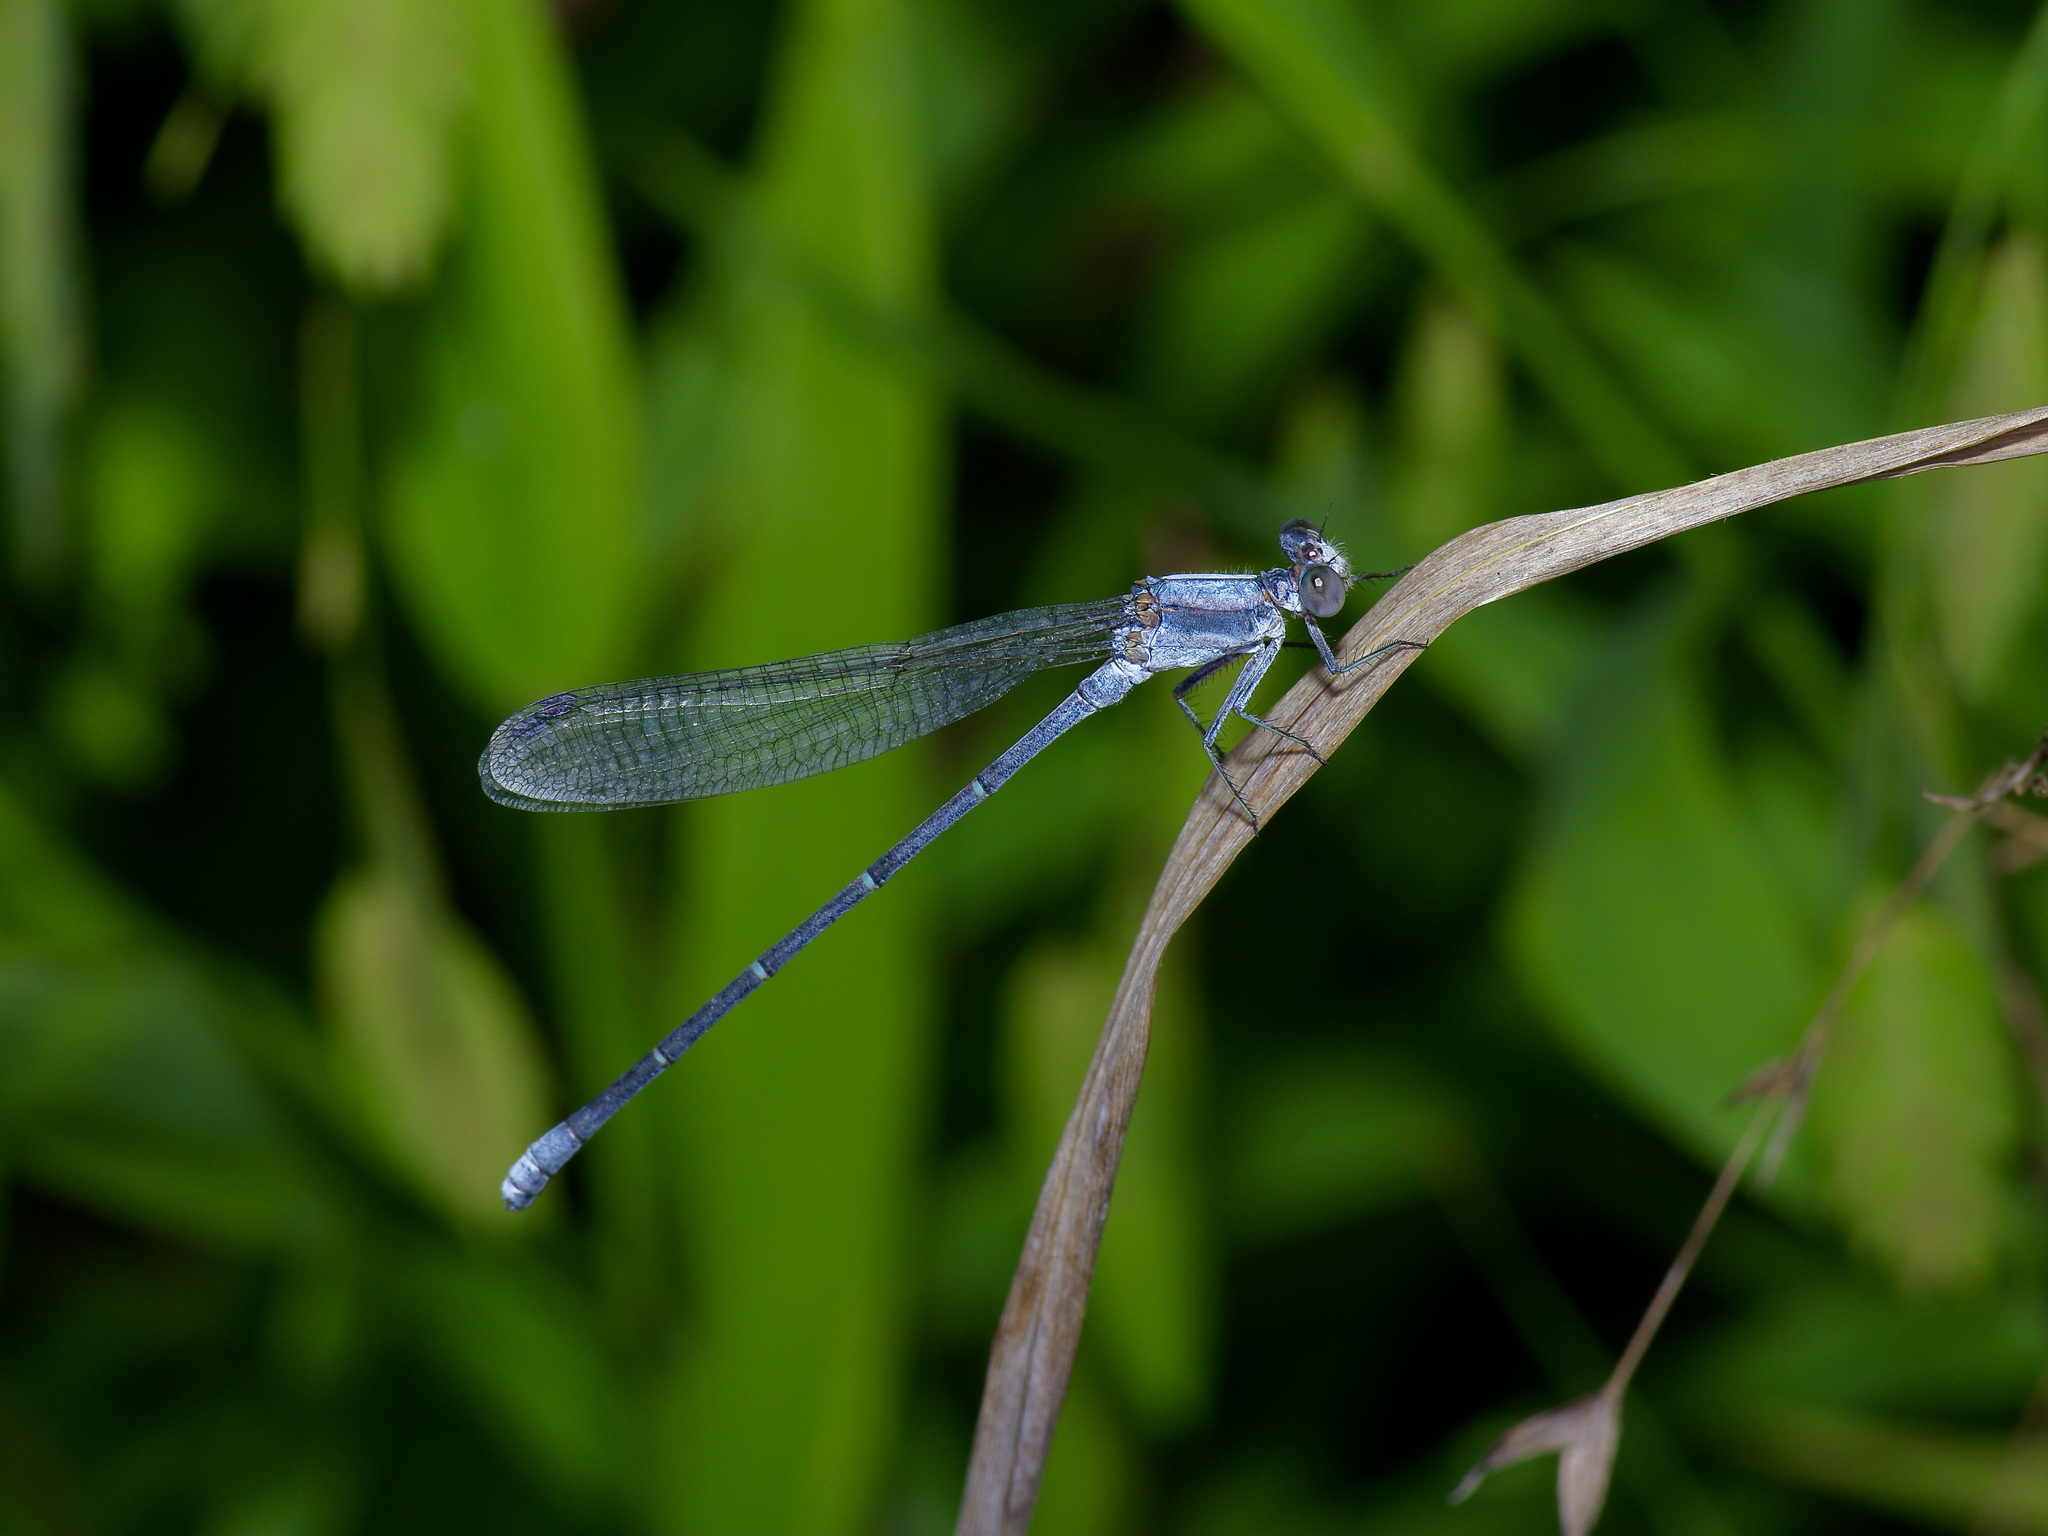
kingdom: Animalia
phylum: Arthropoda
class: Insecta
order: Odonata
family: Coenagrionidae
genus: Argia
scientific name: Argia moesta
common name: Powdered dancer
